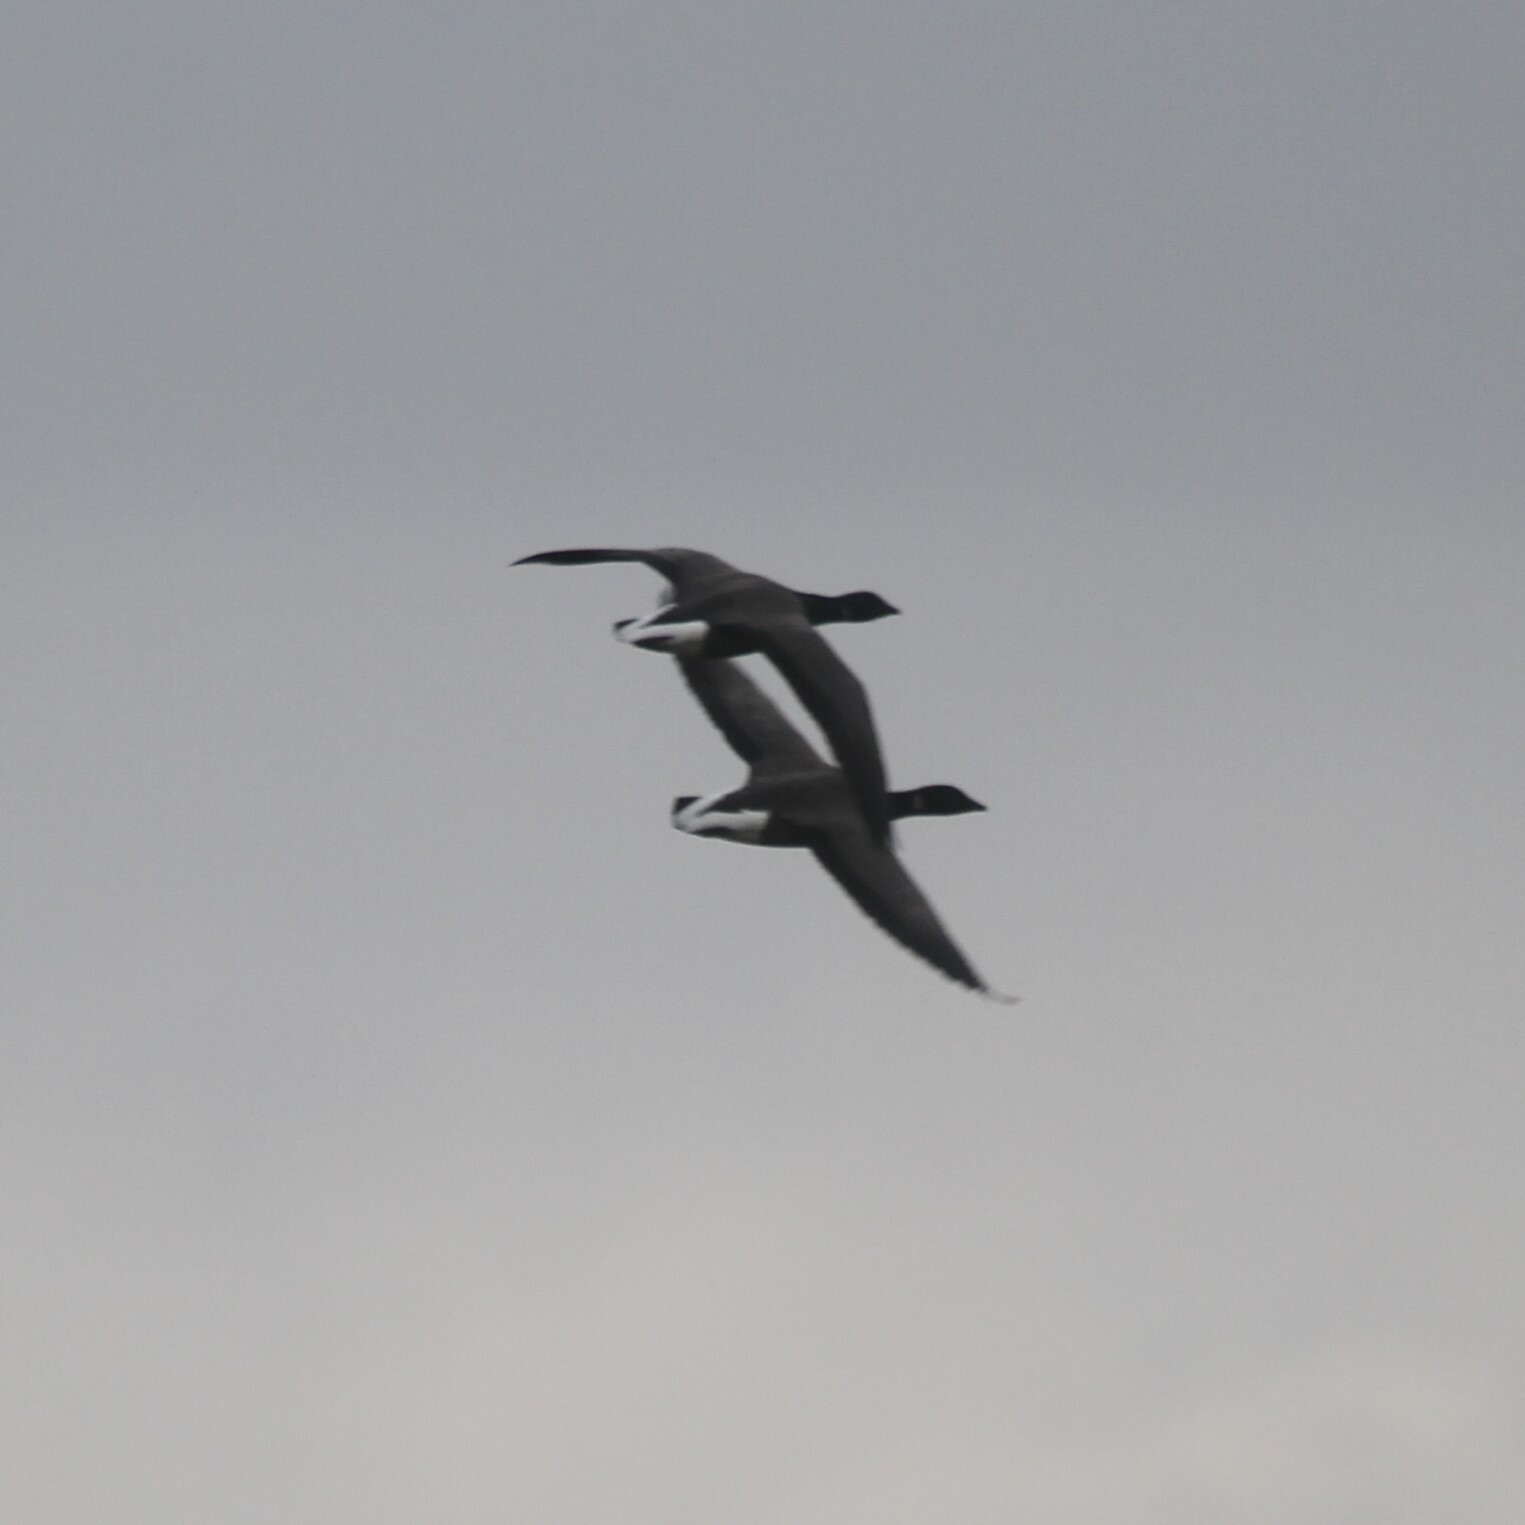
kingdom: Animalia
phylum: Chordata
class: Aves
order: Anseriformes
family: Anatidae
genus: Branta
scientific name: Branta bernicla
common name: Brant goose
